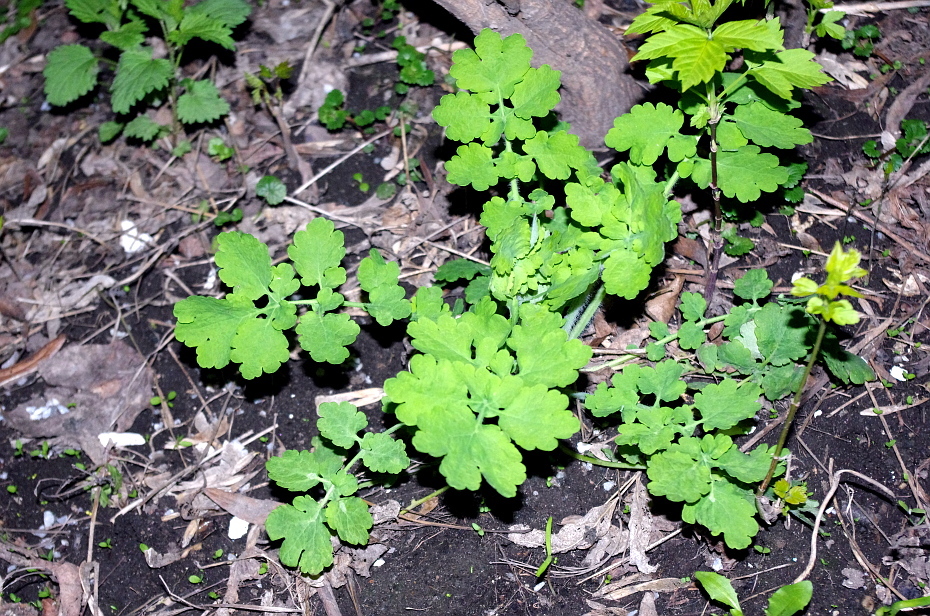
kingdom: Plantae
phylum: Tracheophyta
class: Magnoliopsida
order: Ranunculales
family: Papaveraceae
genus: Chelidonium
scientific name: Chelidonium majus
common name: Greater celandine
